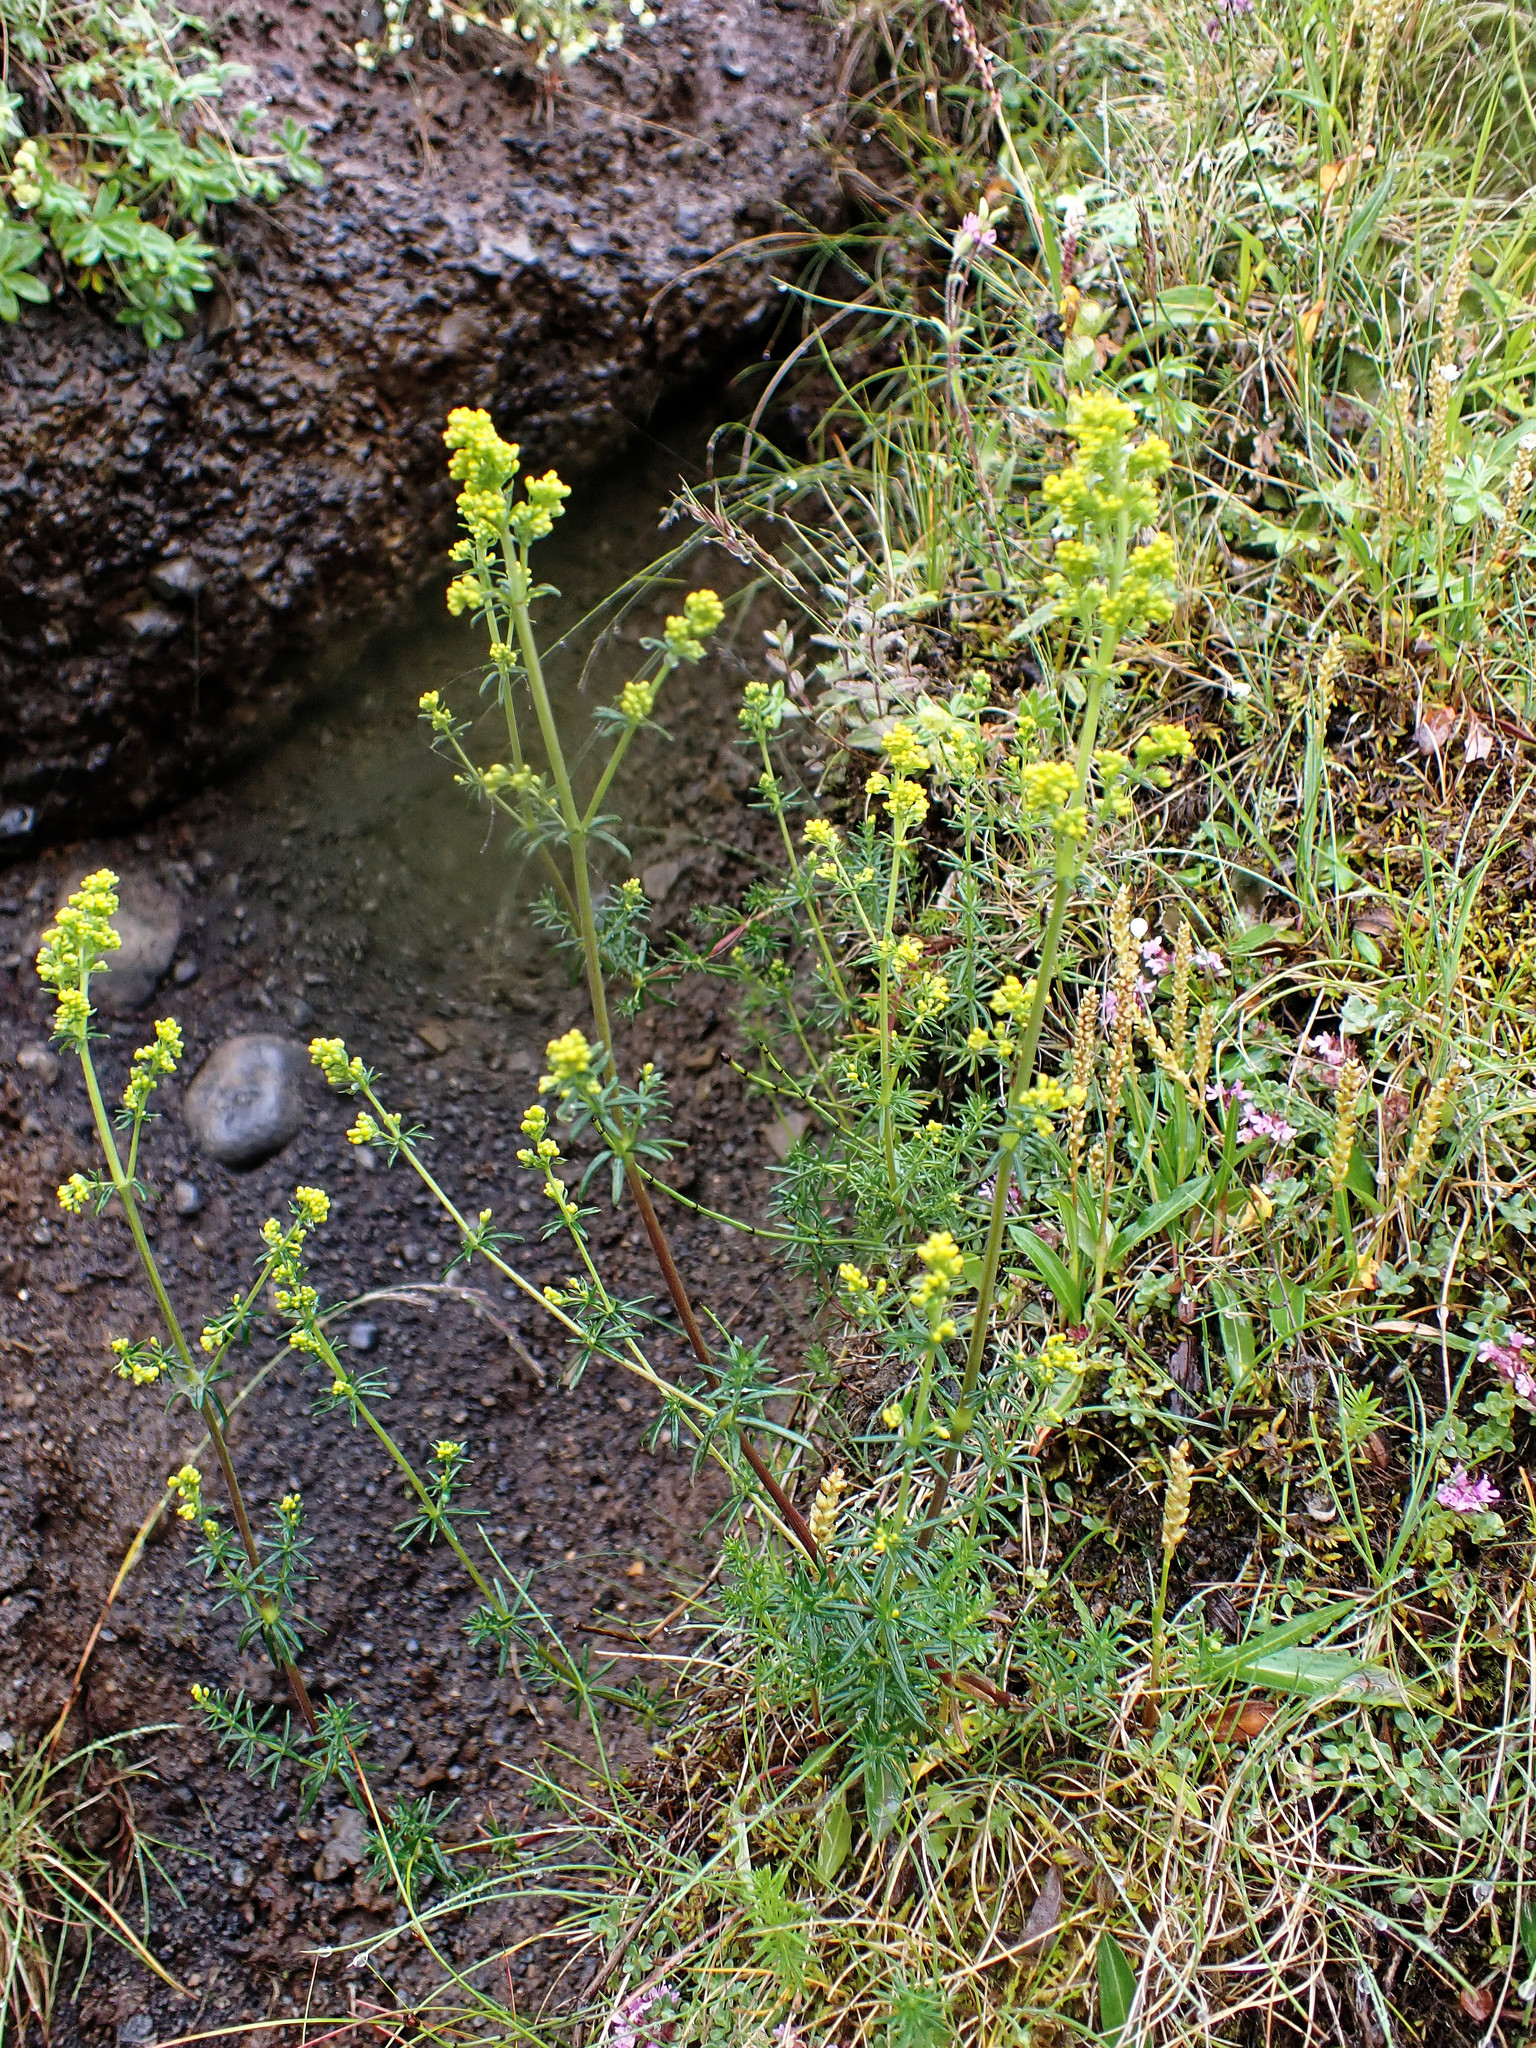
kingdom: Plantae
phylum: Tracheophyta
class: Magnoliopsida
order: Gentianales
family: Rubiaceae
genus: Galium
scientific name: Galium verum
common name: Lady's bedstraw
